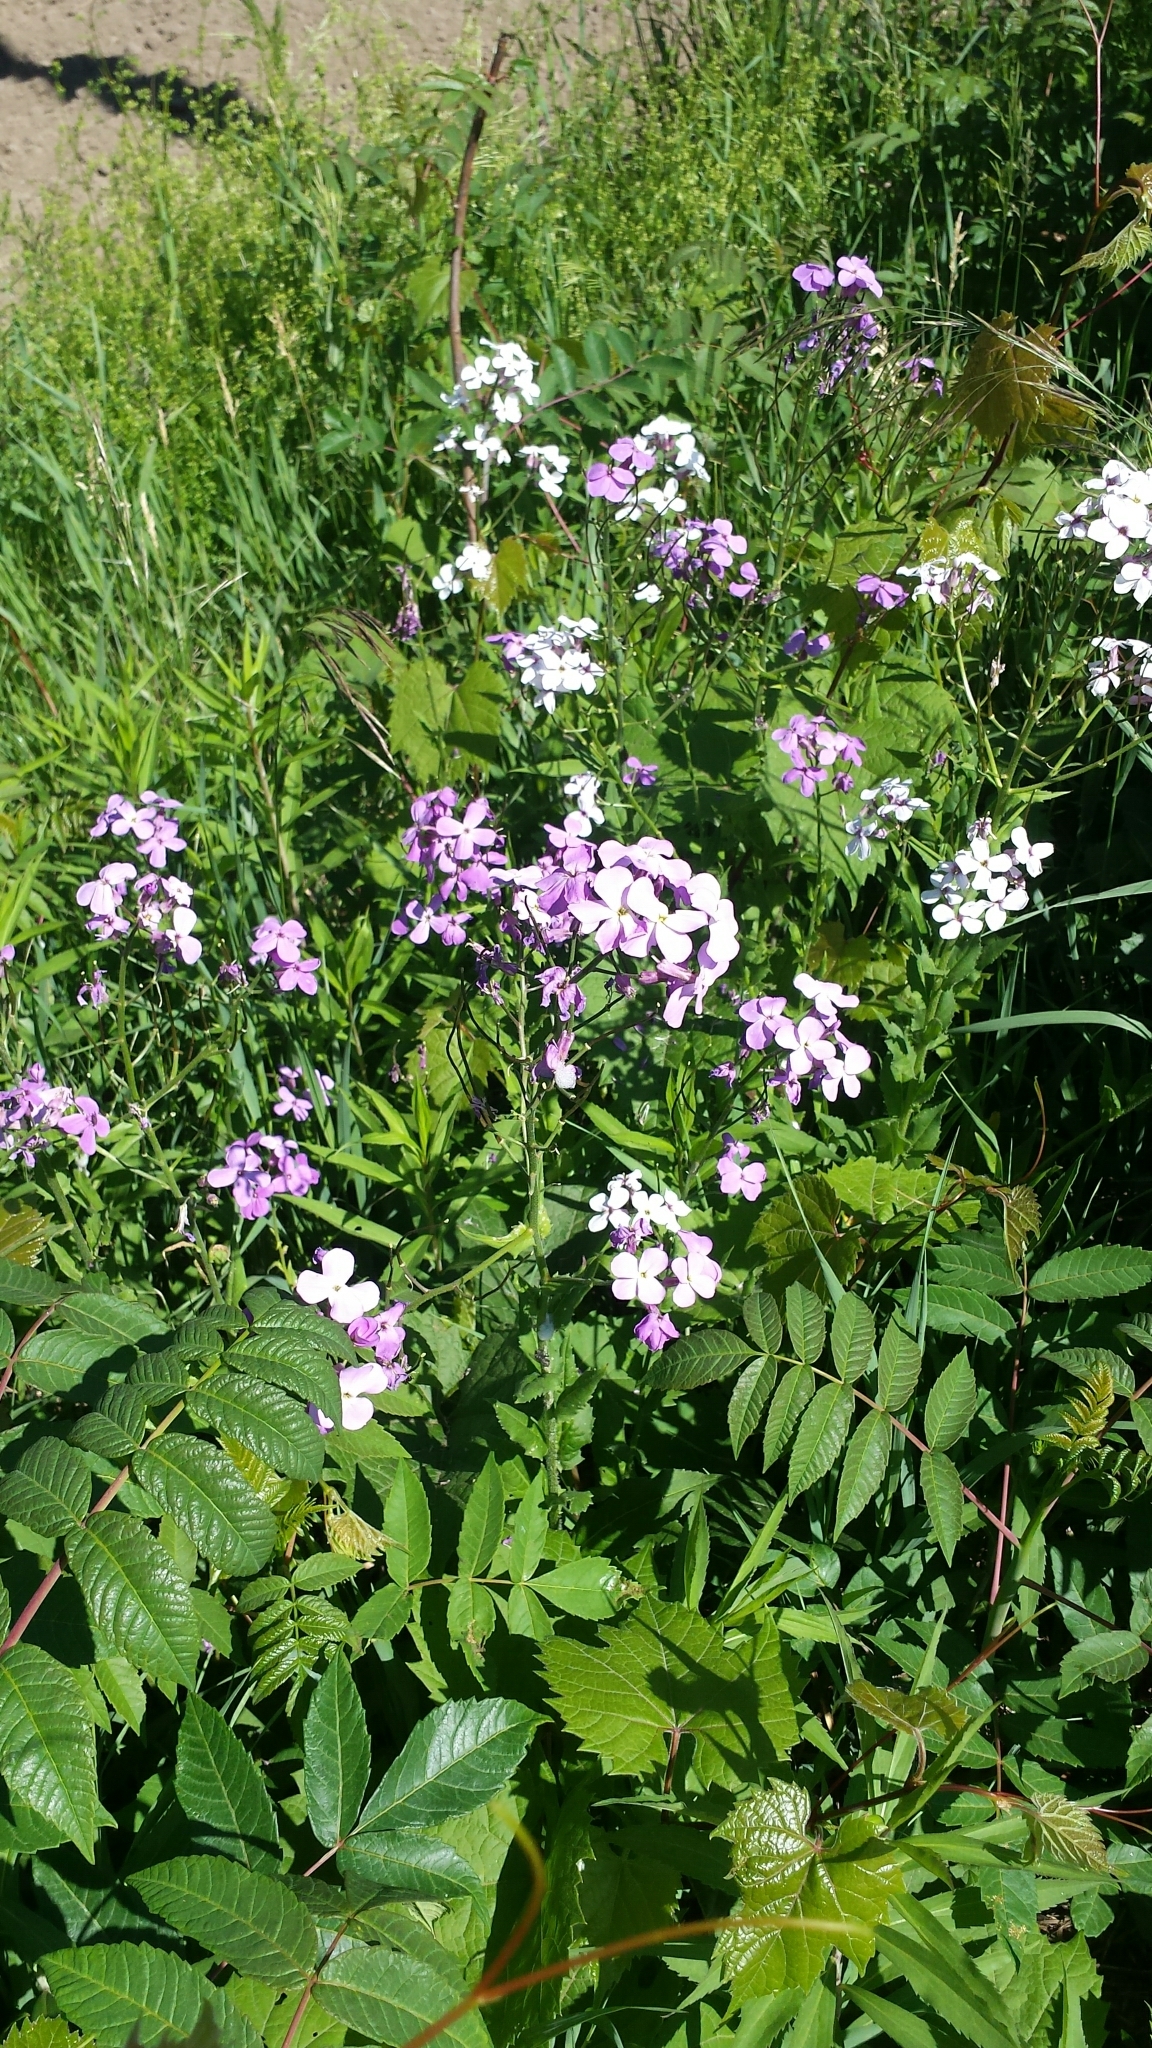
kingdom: Plantae
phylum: Tracheophyta
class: Magnoliopsida
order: Brassicales
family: Brassicaceae
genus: Hesperis
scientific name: Hesperis matronalis
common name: Dame's-violet
